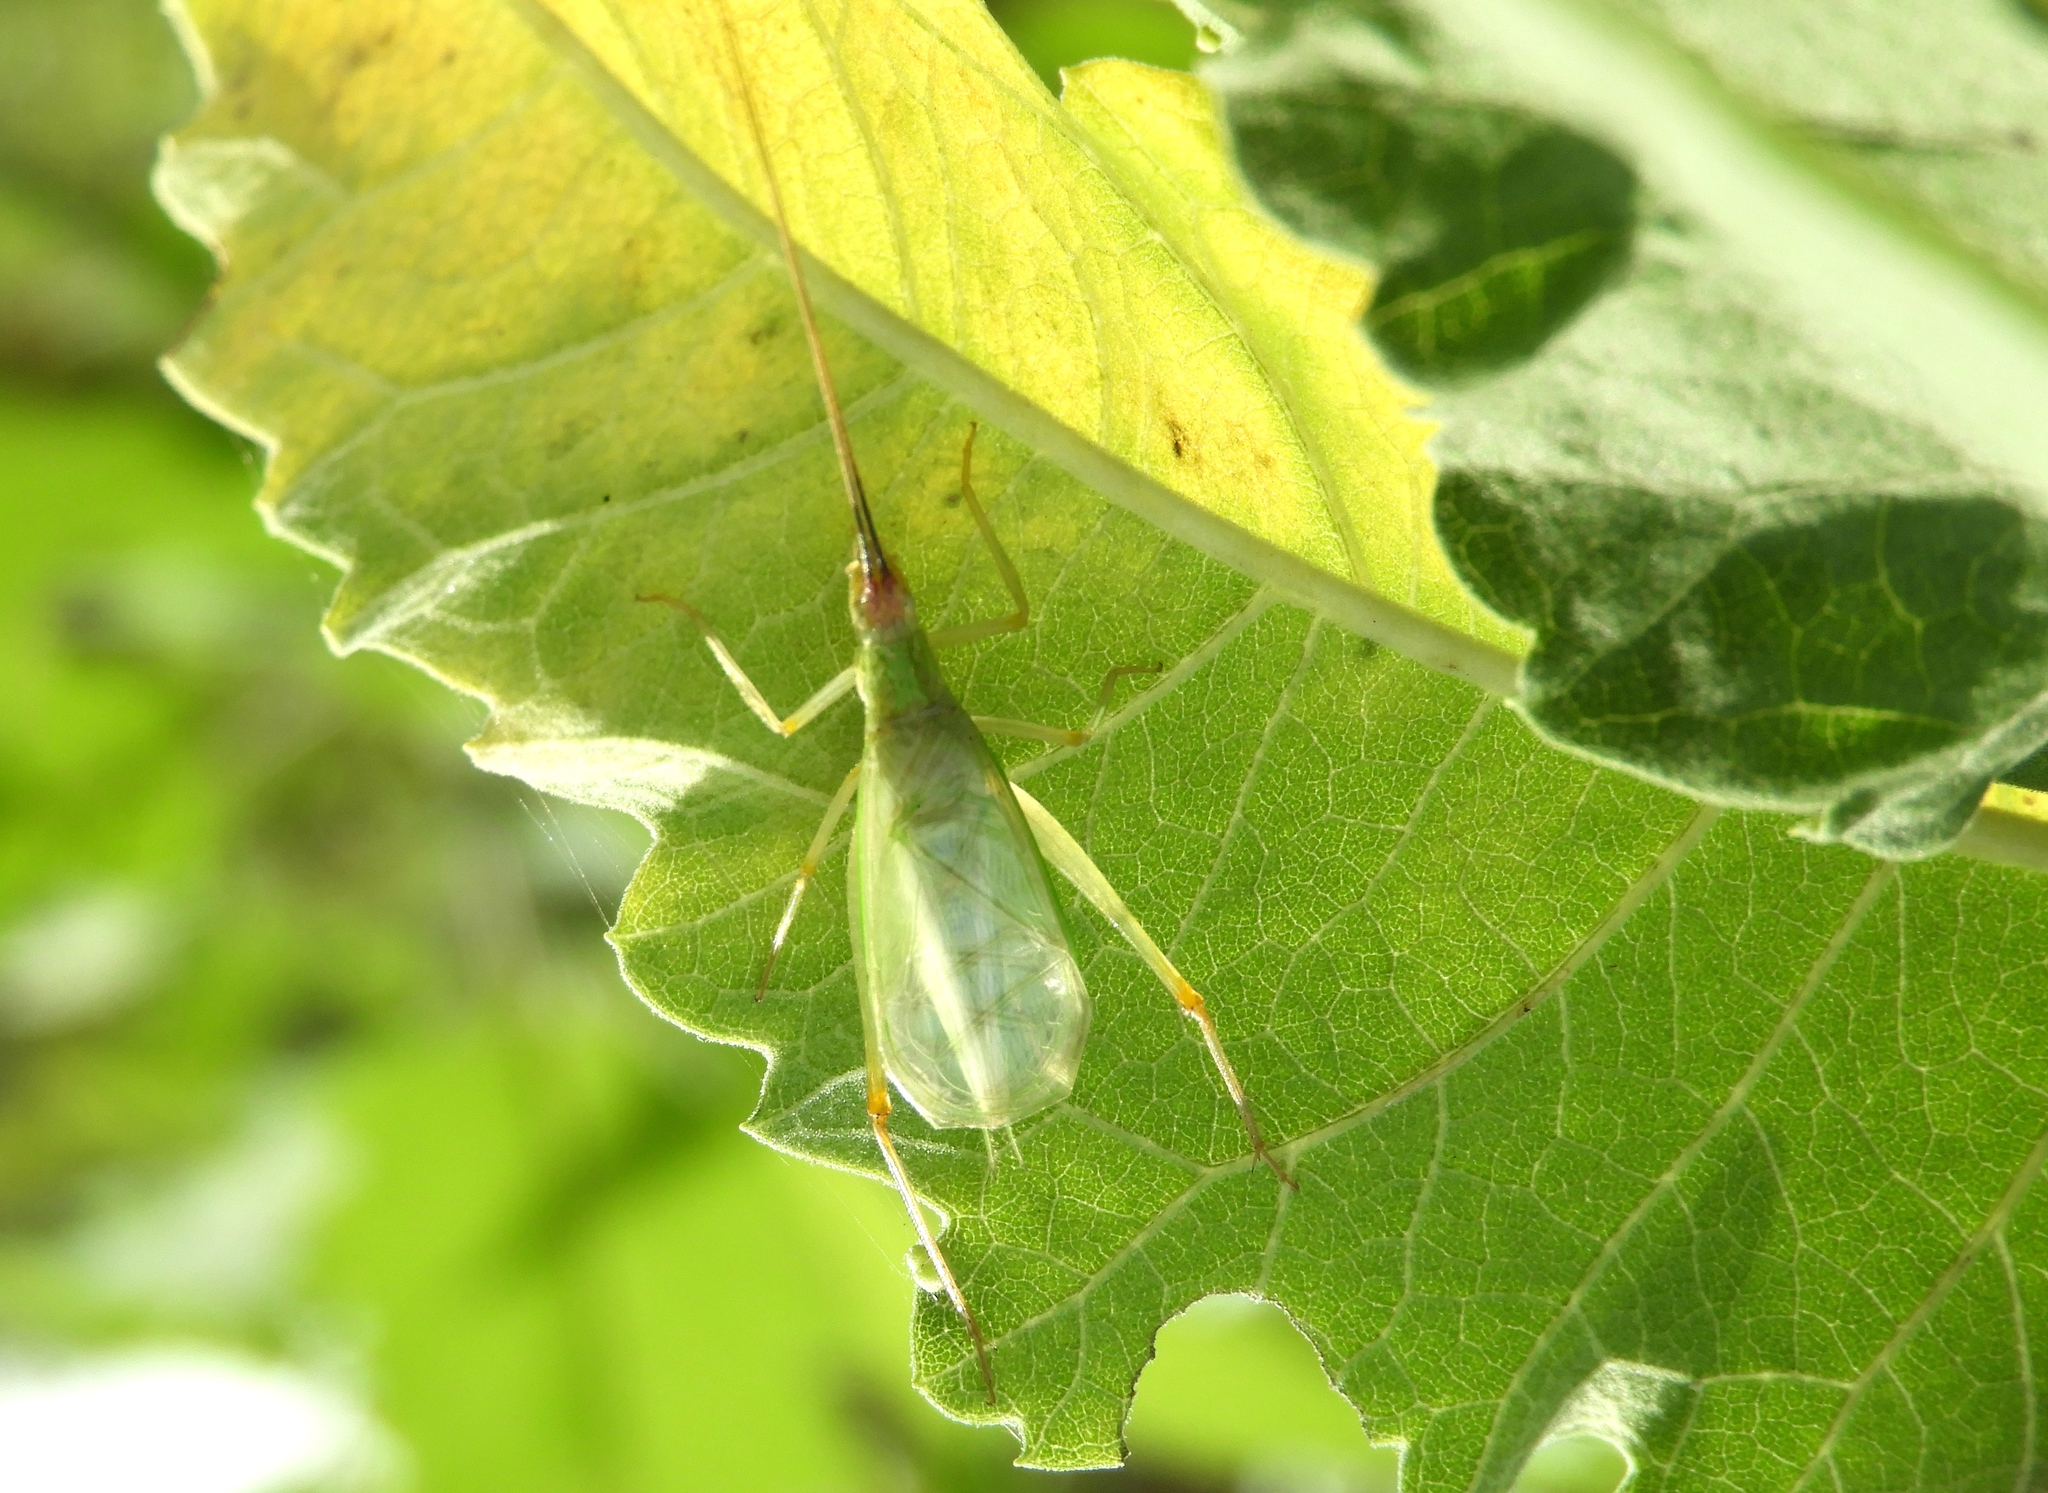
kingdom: Animalia
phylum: Arthropoda
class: Insecta
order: Orthoptera
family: Gryllidae
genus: Oecanthus
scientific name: Oecanthus
